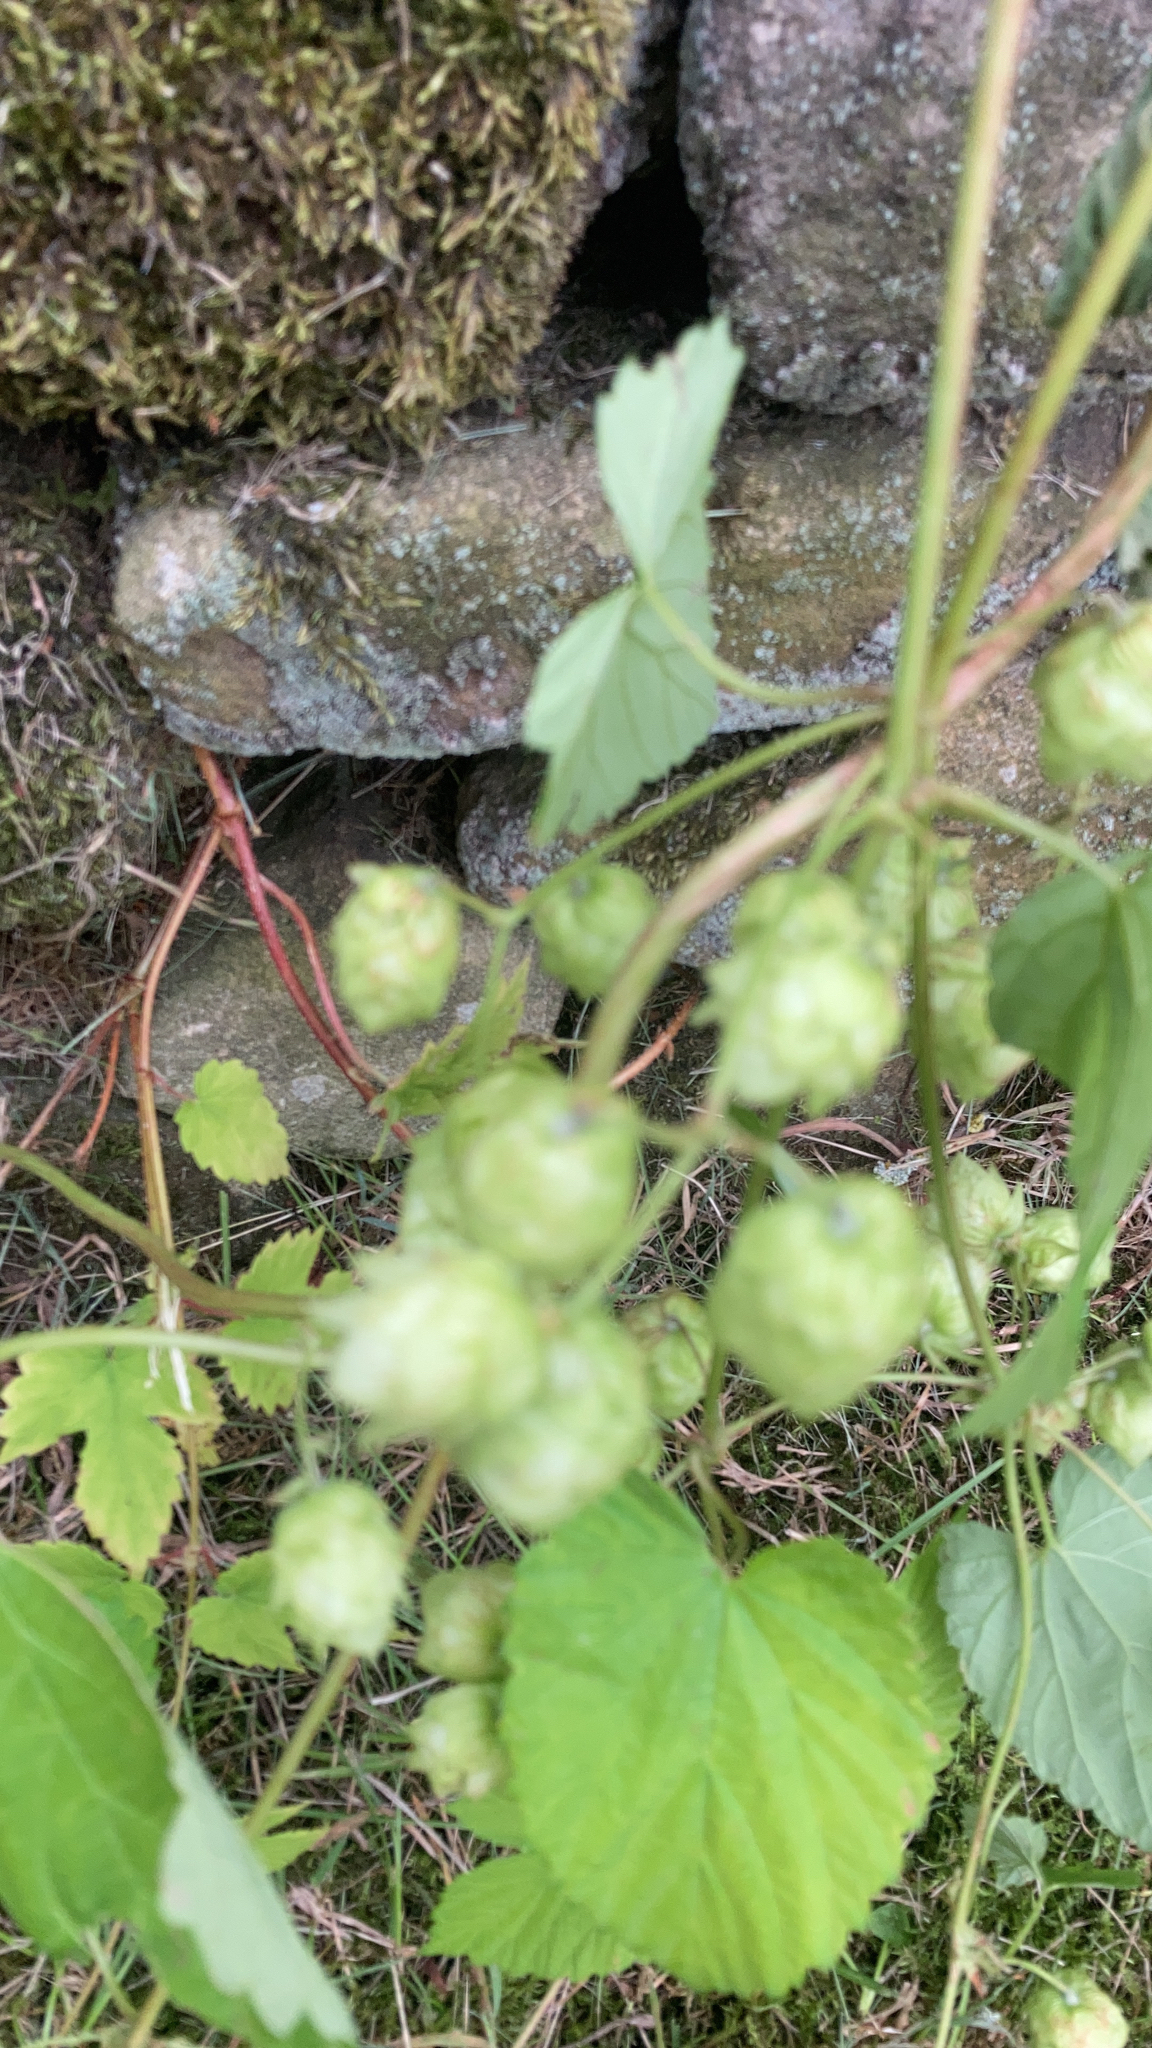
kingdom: Plantae
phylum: Tracheophyta
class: Magnoliopsida
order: Rosales
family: Cannabaceae
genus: Humulus
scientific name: Humulus lupulus
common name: Hop
